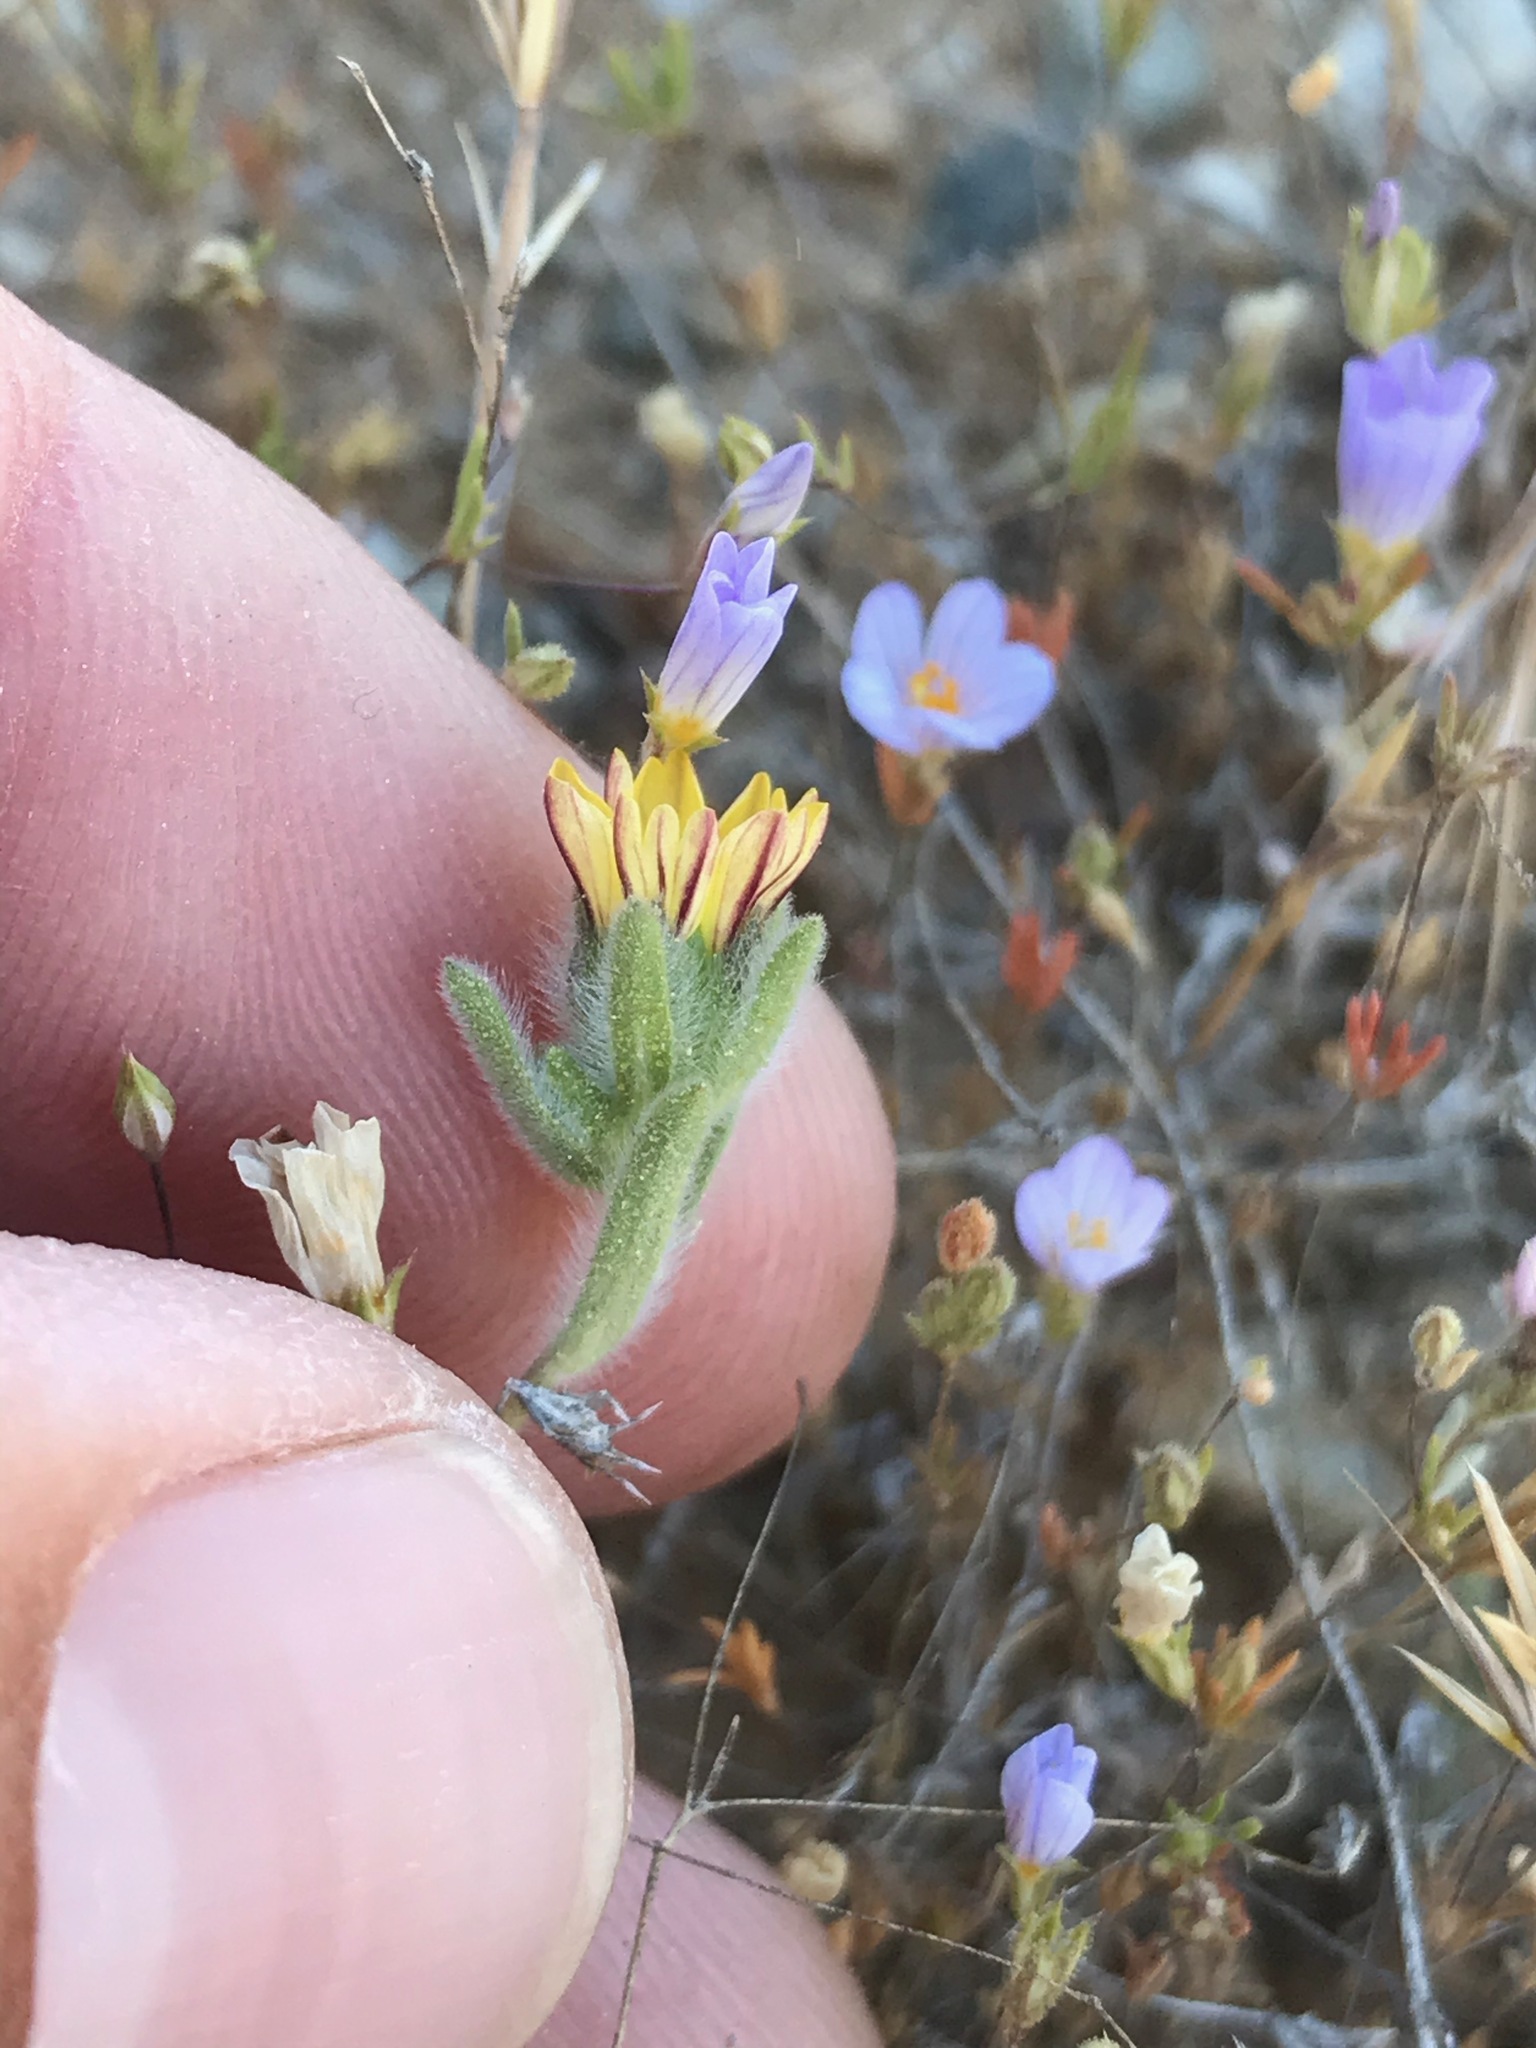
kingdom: Plantae
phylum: Tracheophyta
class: Magnoliopsida
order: Asterales
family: Asteraceae
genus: Lagophylla
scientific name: Lagophylla ramosissima
